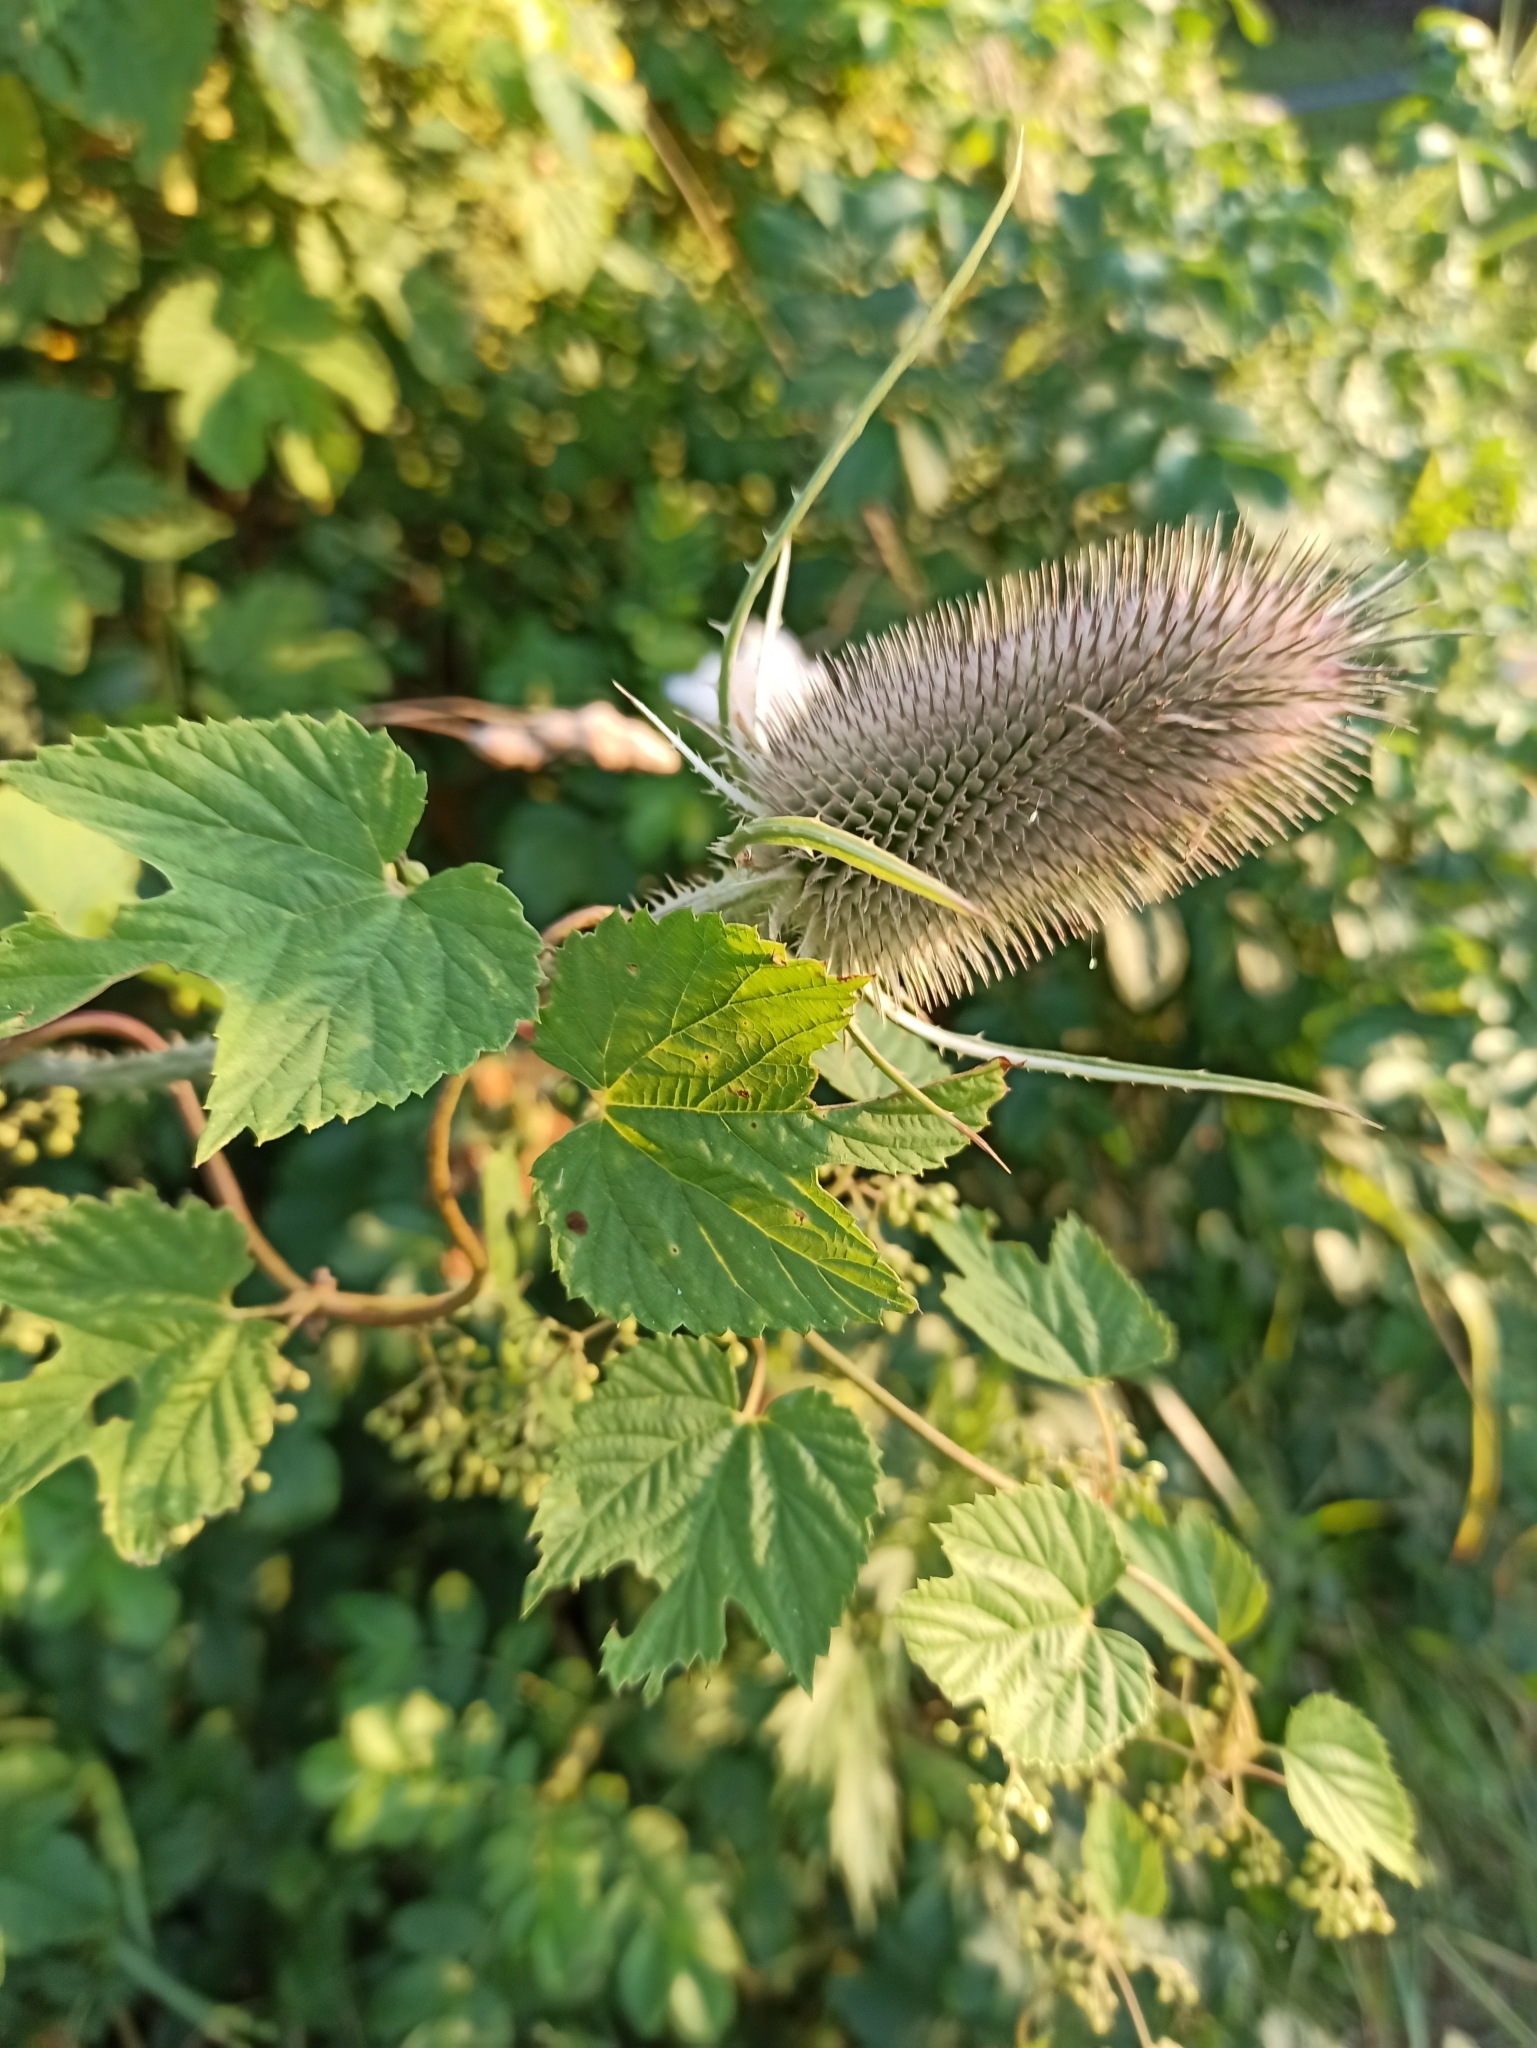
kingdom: Plantae
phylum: Tracheophyta
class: Magnoliopsida
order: Dipsacales
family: Caprifoliaceae
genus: Dipsacus
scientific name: Dipsacus fullonum
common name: Teasel
